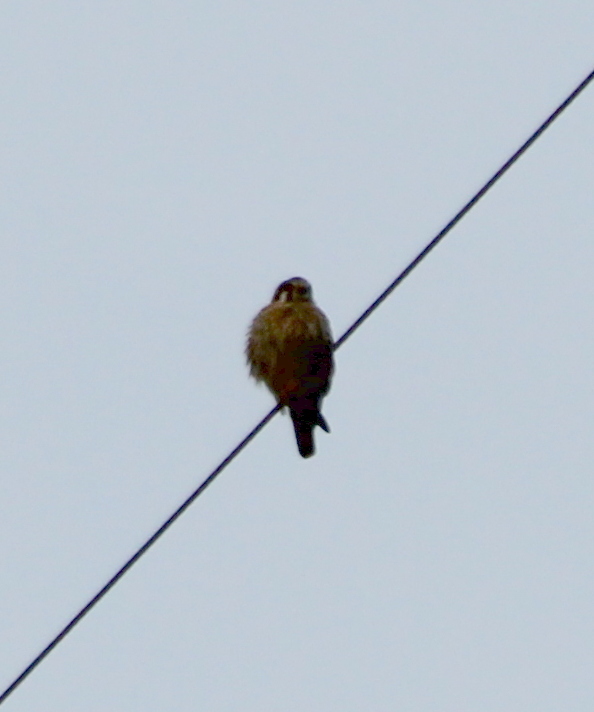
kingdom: Animalia
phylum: Chordata
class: Aves
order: Falconiformes
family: Falconidae
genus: Falco
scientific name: Falco sparverius
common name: American kestrel
